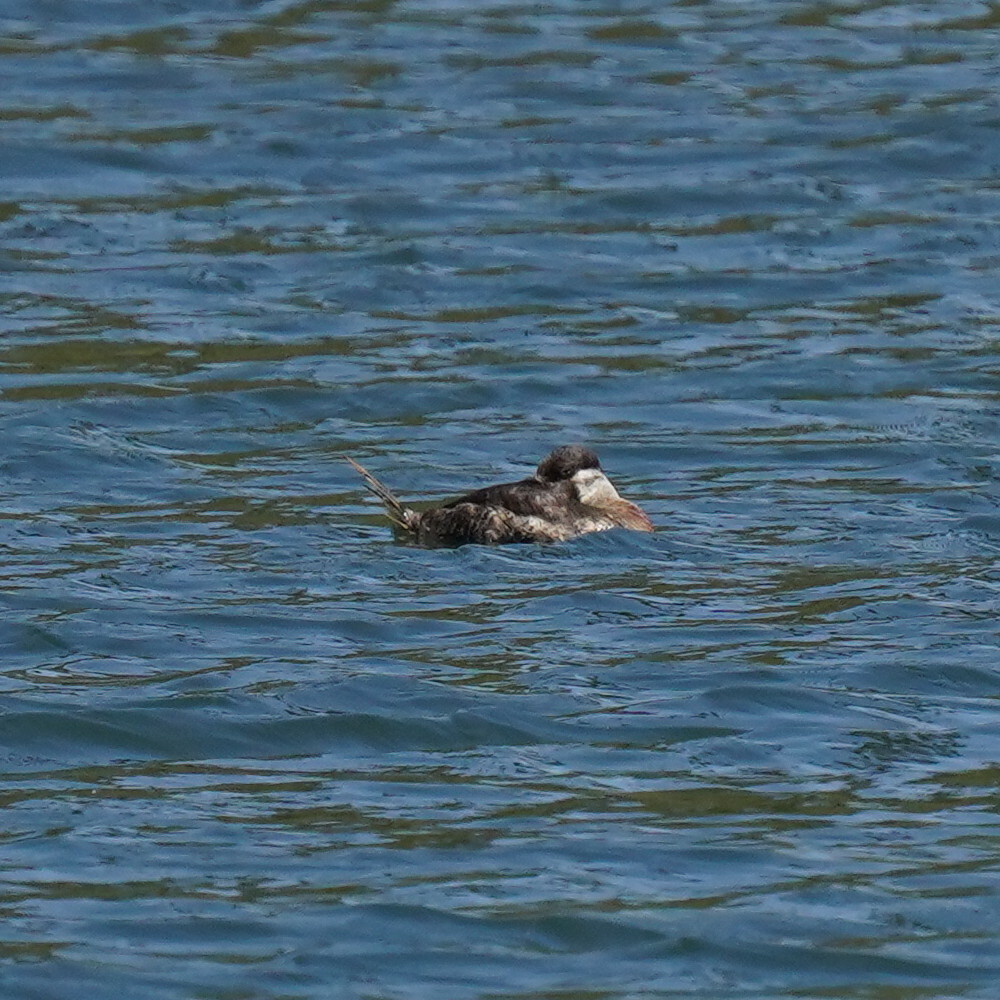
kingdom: Animalia
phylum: Chordata
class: Aves
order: Anseriformes
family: Anatidae
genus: Oxyura
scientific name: Oxyura jamaicensis
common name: Ruddy duck
